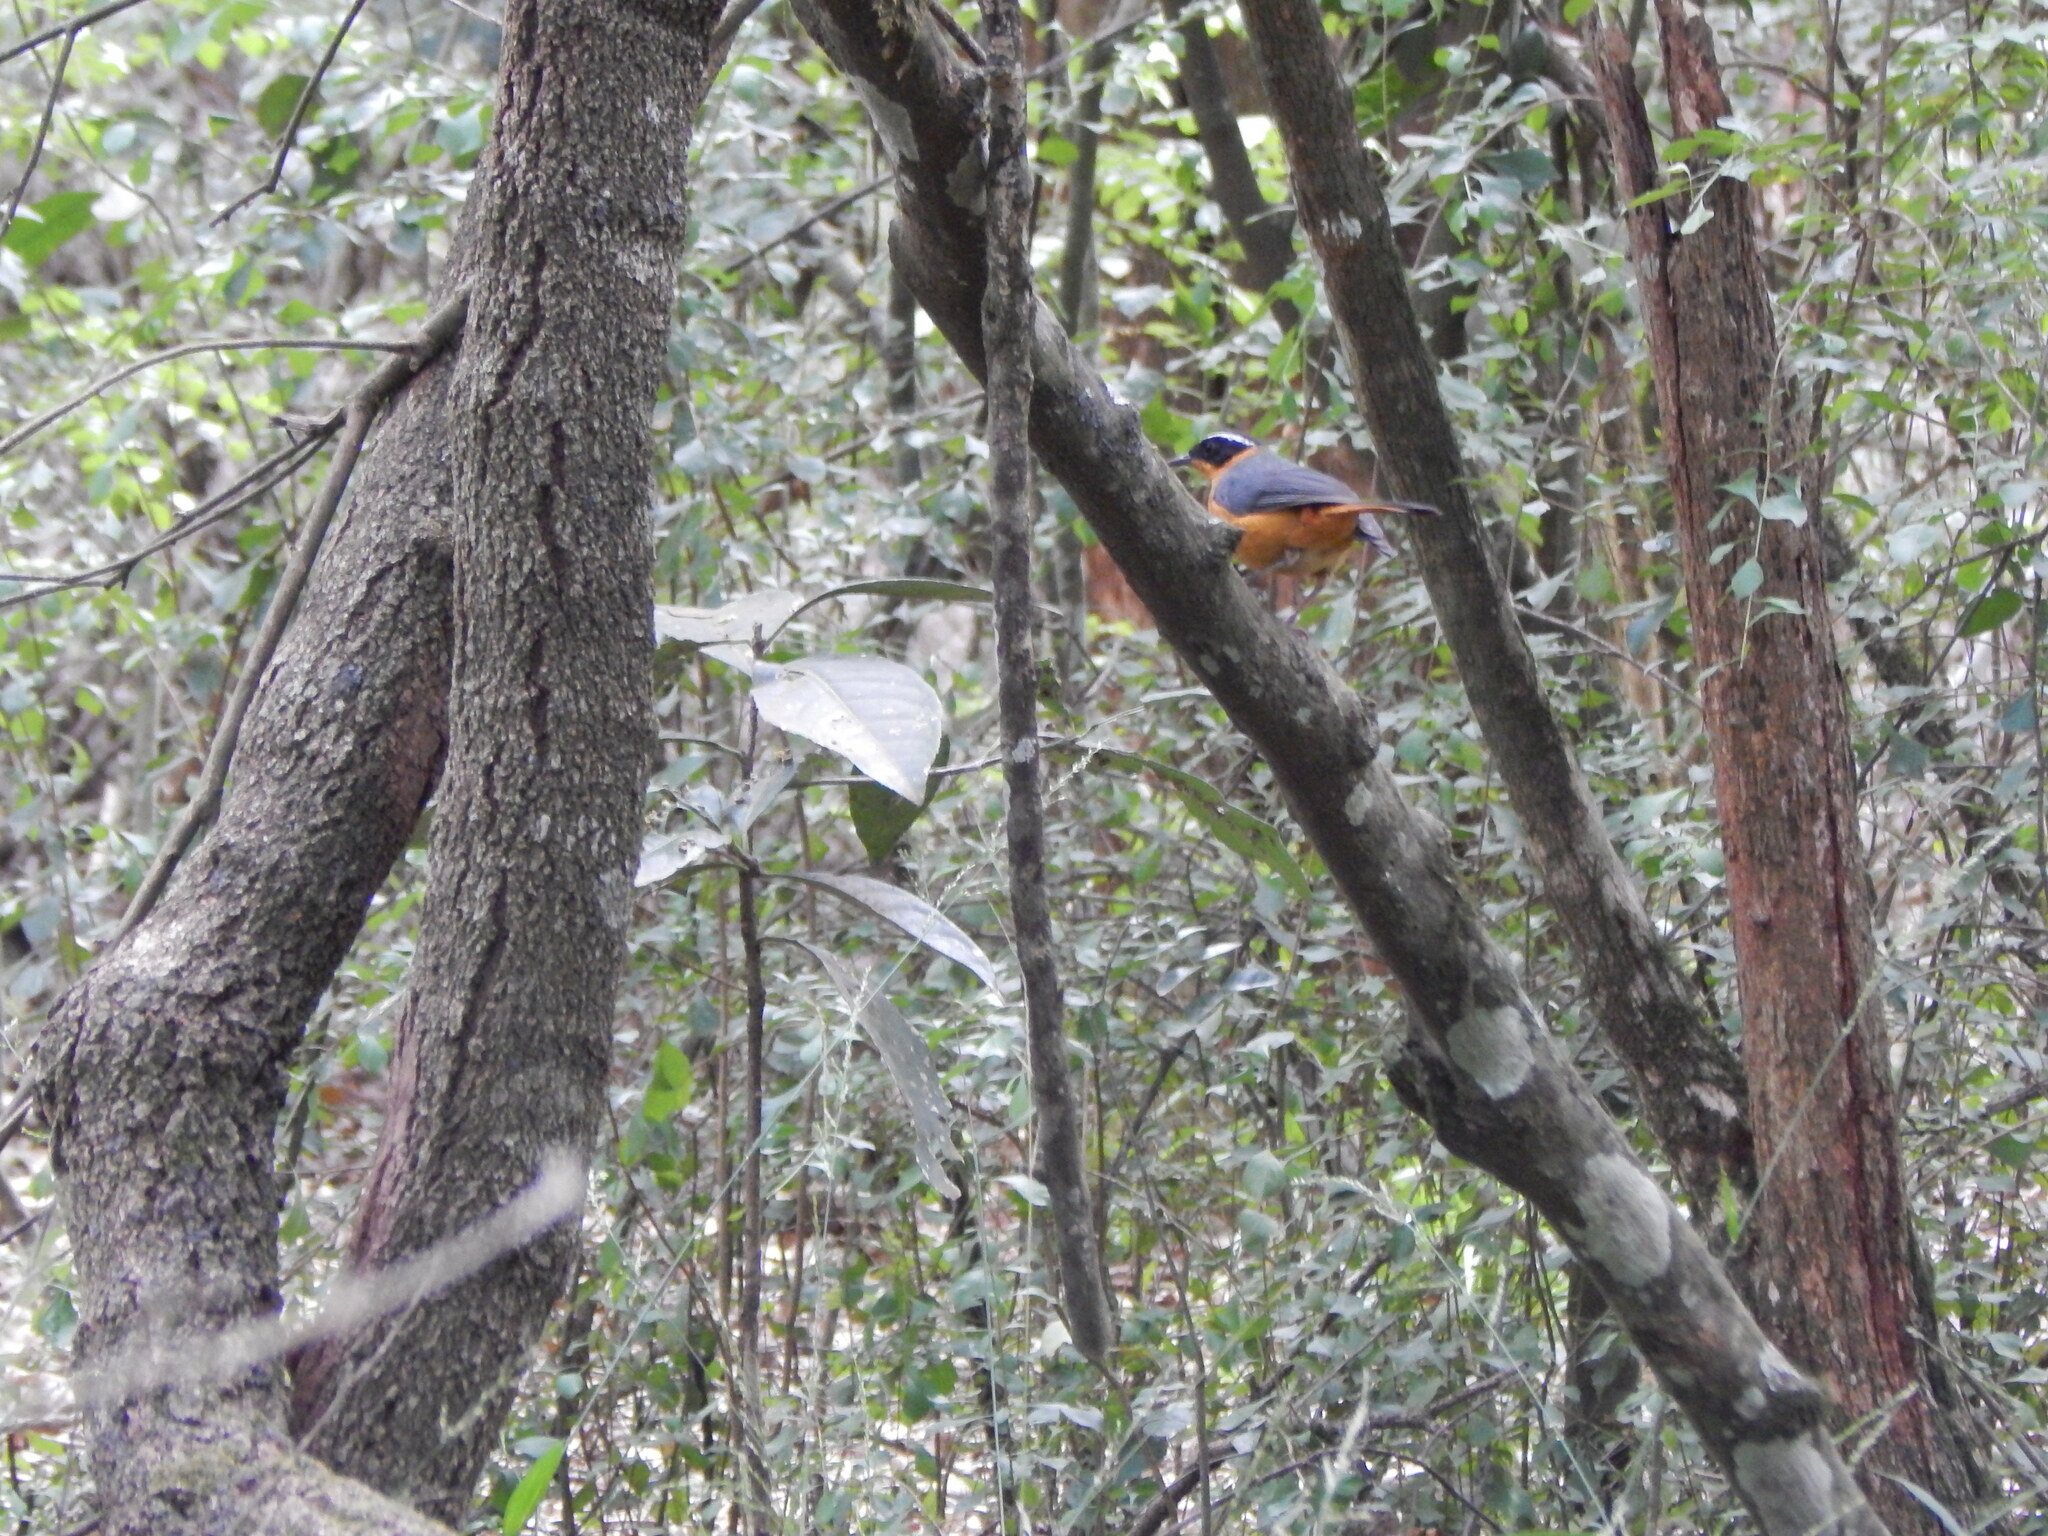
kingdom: Animalia
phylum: Chordata
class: Aves
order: Passeriformes
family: Muscicapidae
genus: Cossypha
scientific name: Cossypha heuglini
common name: White-browed robin-chat
